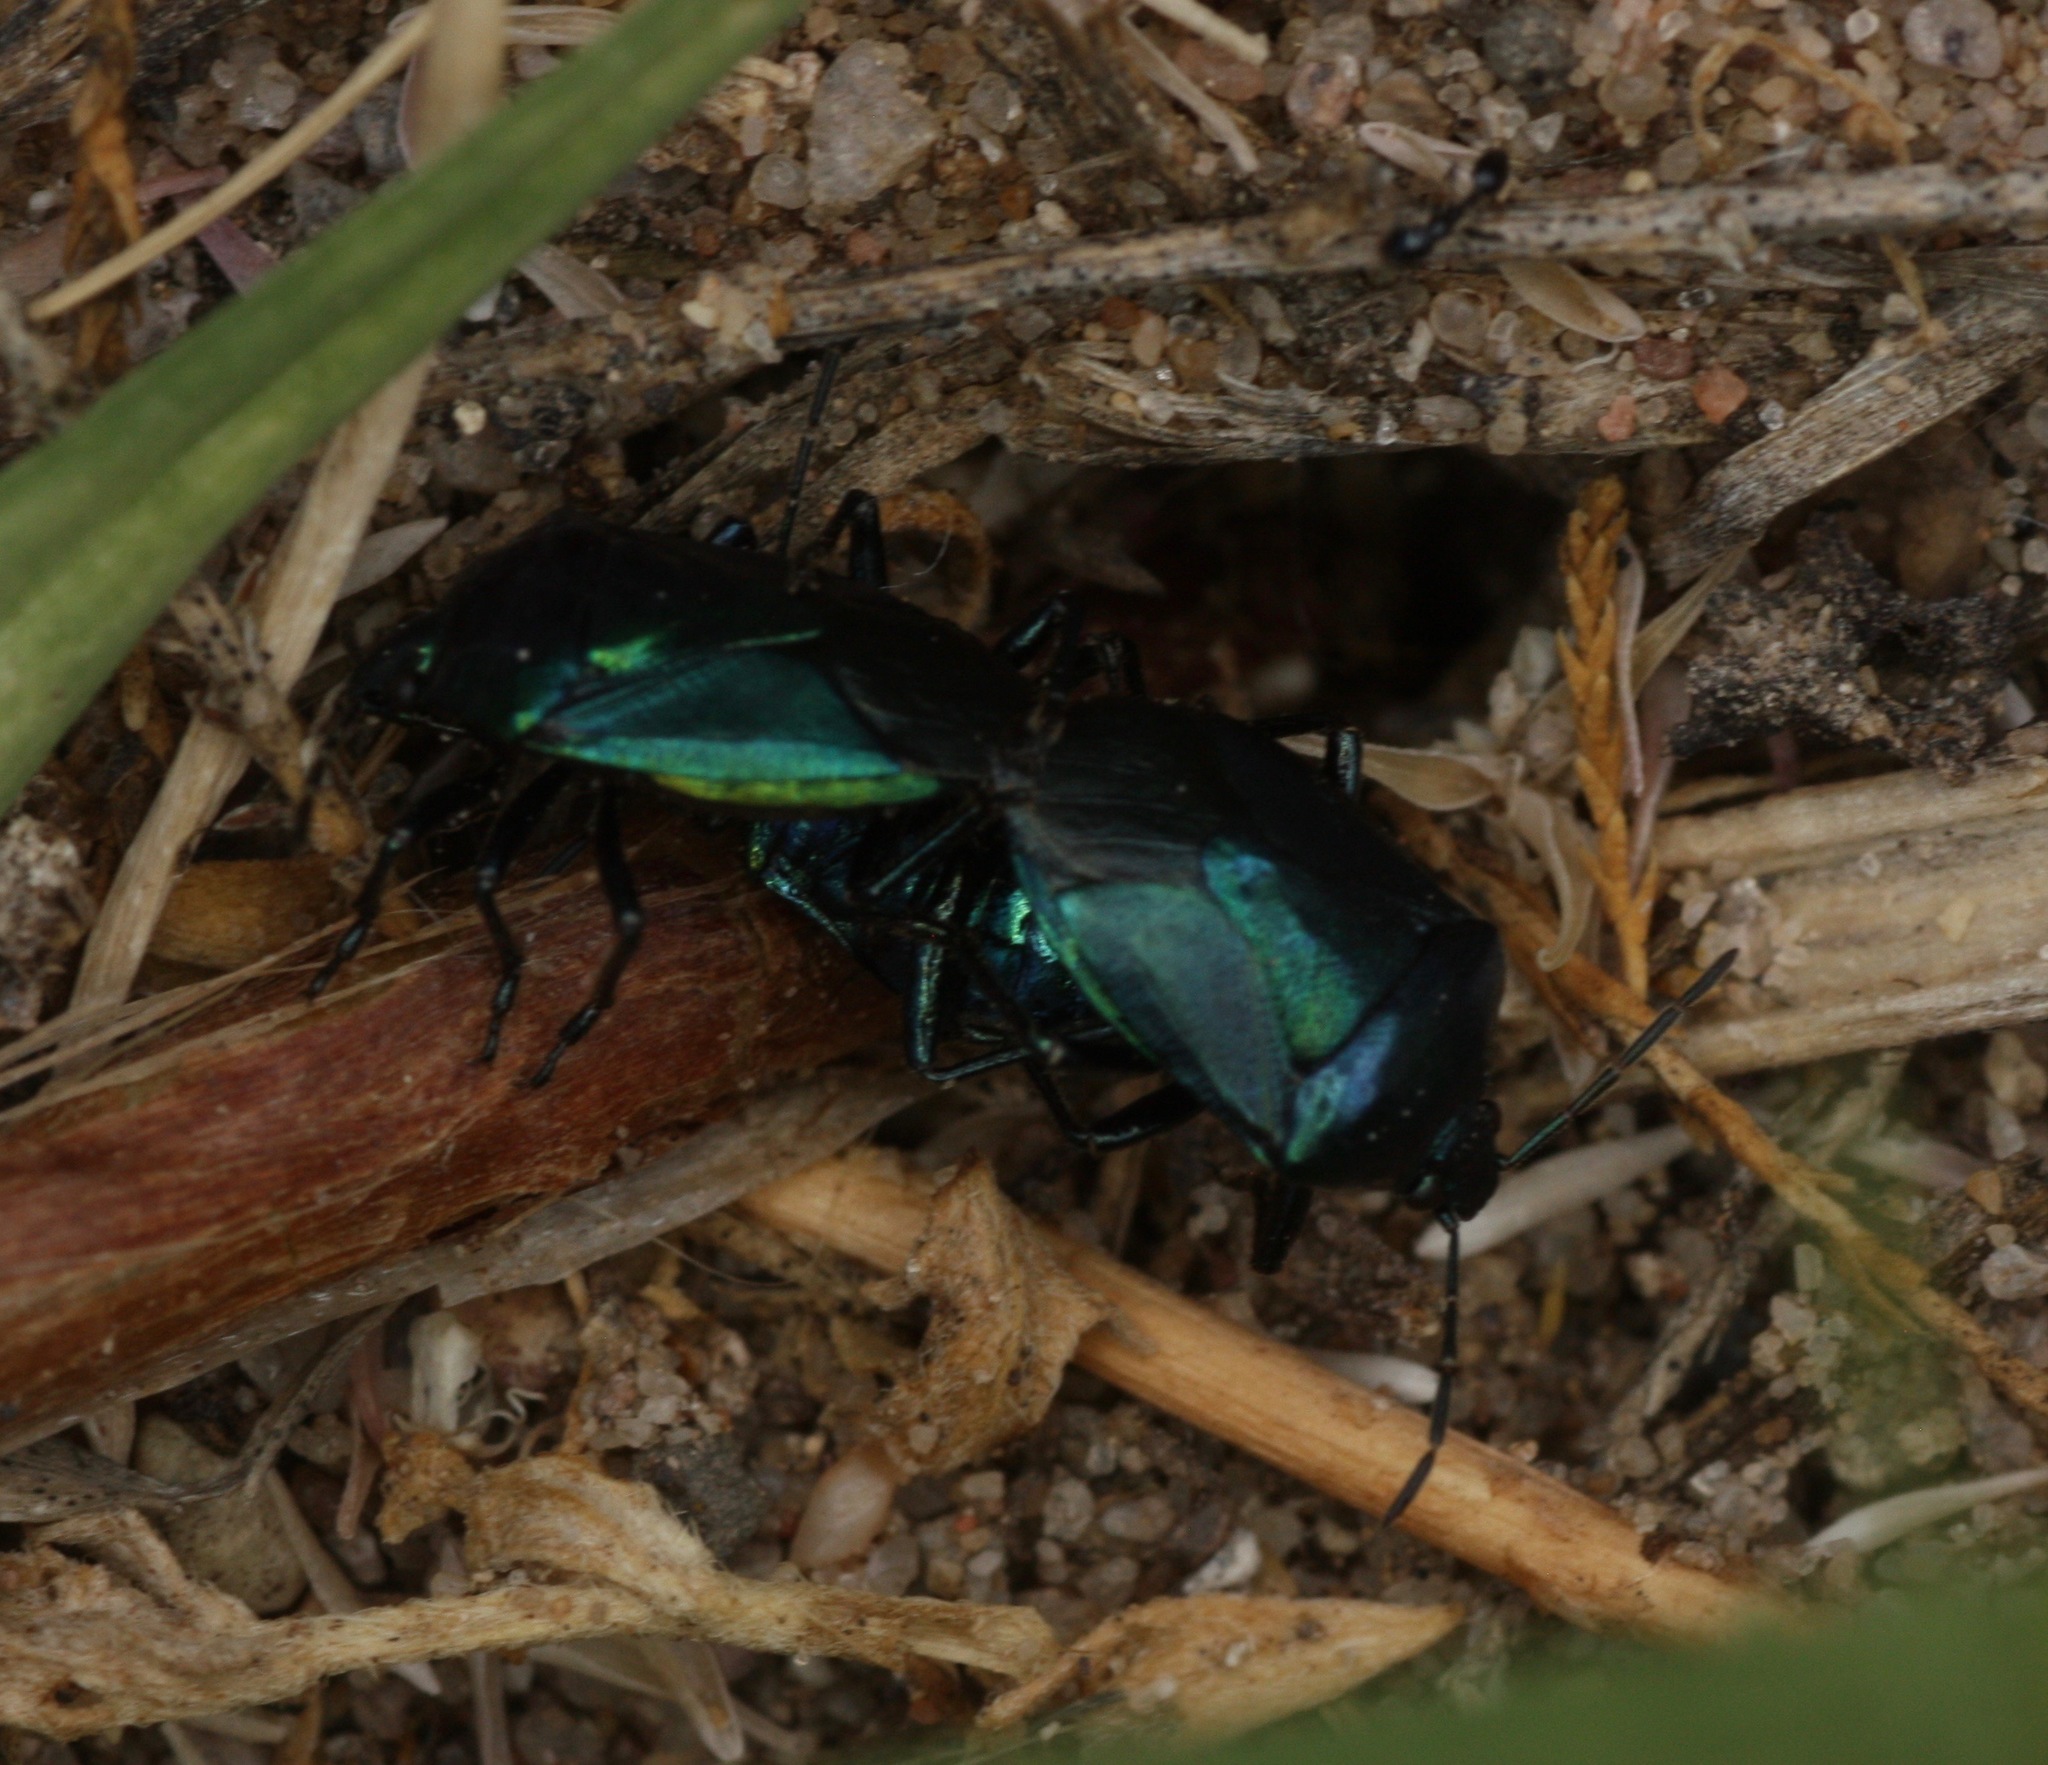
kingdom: Animalia
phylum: Arthropoda
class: Insecta
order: Hemiptera
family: Pentatomidae
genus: Zicrona
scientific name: Zicrona
